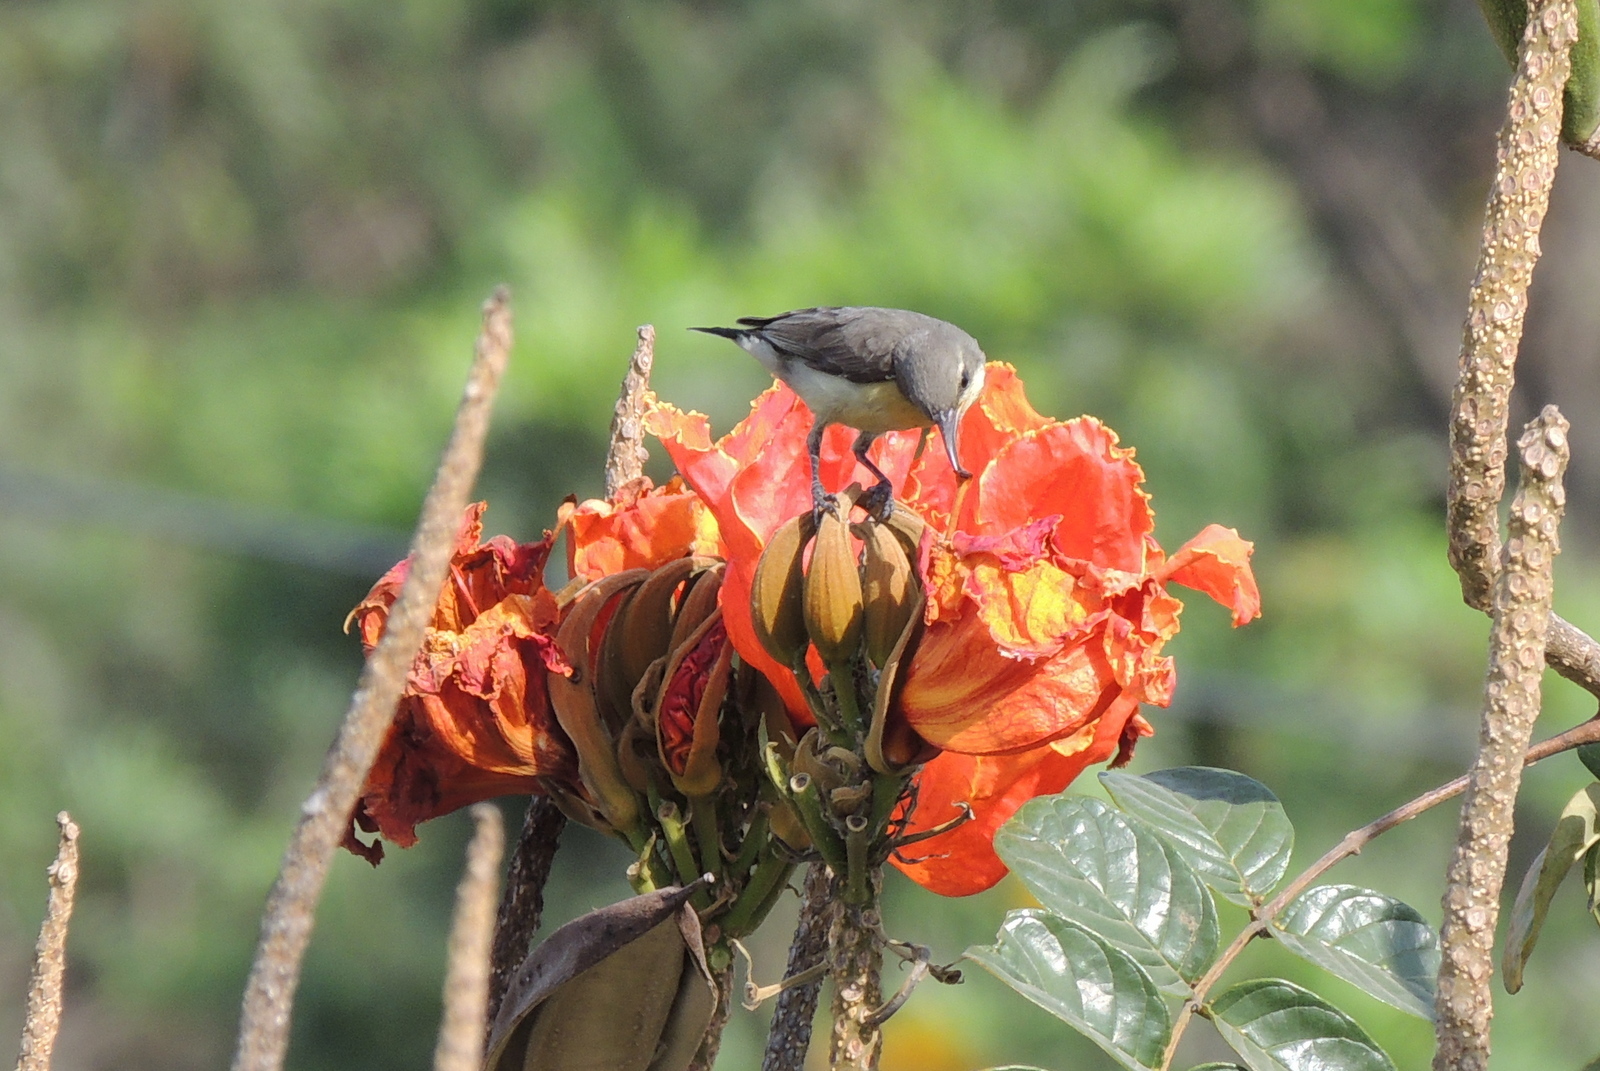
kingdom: Animalia
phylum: Chordata
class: Aves
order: Passeriformes
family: Nectariniidae
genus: Leptocoma
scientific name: Leptocoma zeylonica
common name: Purple-rumped sunbird
